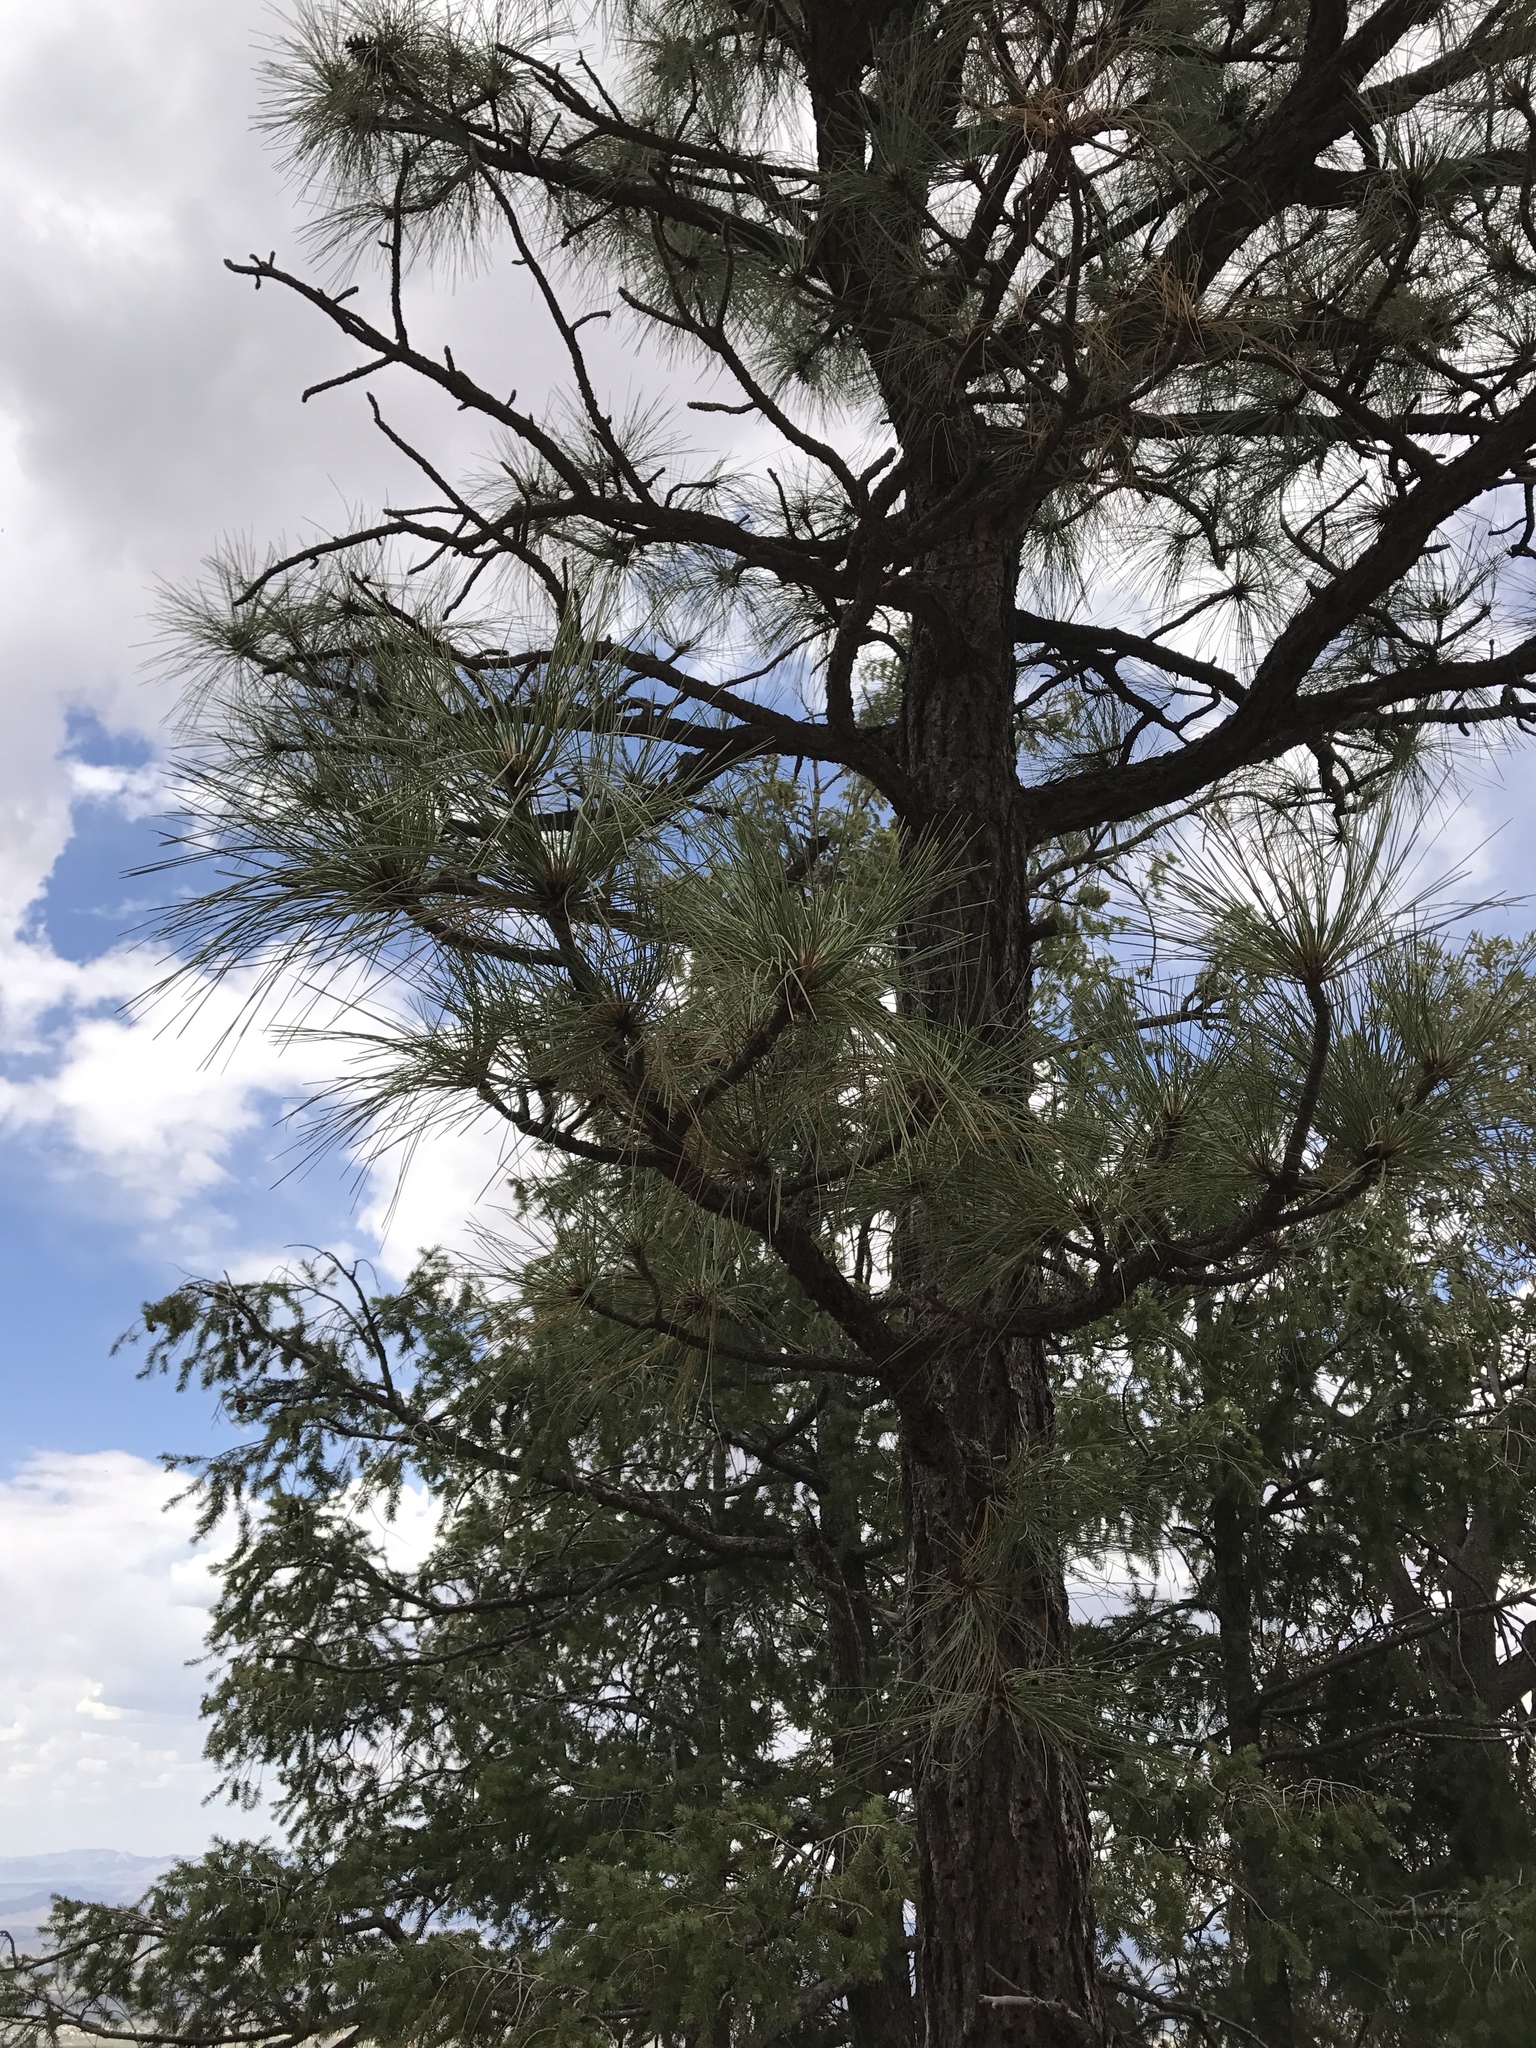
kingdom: Plantae
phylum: Tracheophyta
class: Pinopsida
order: Pinales
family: Pinaceae
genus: Pinus
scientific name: Pinus engelmannii
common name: Apache pine
